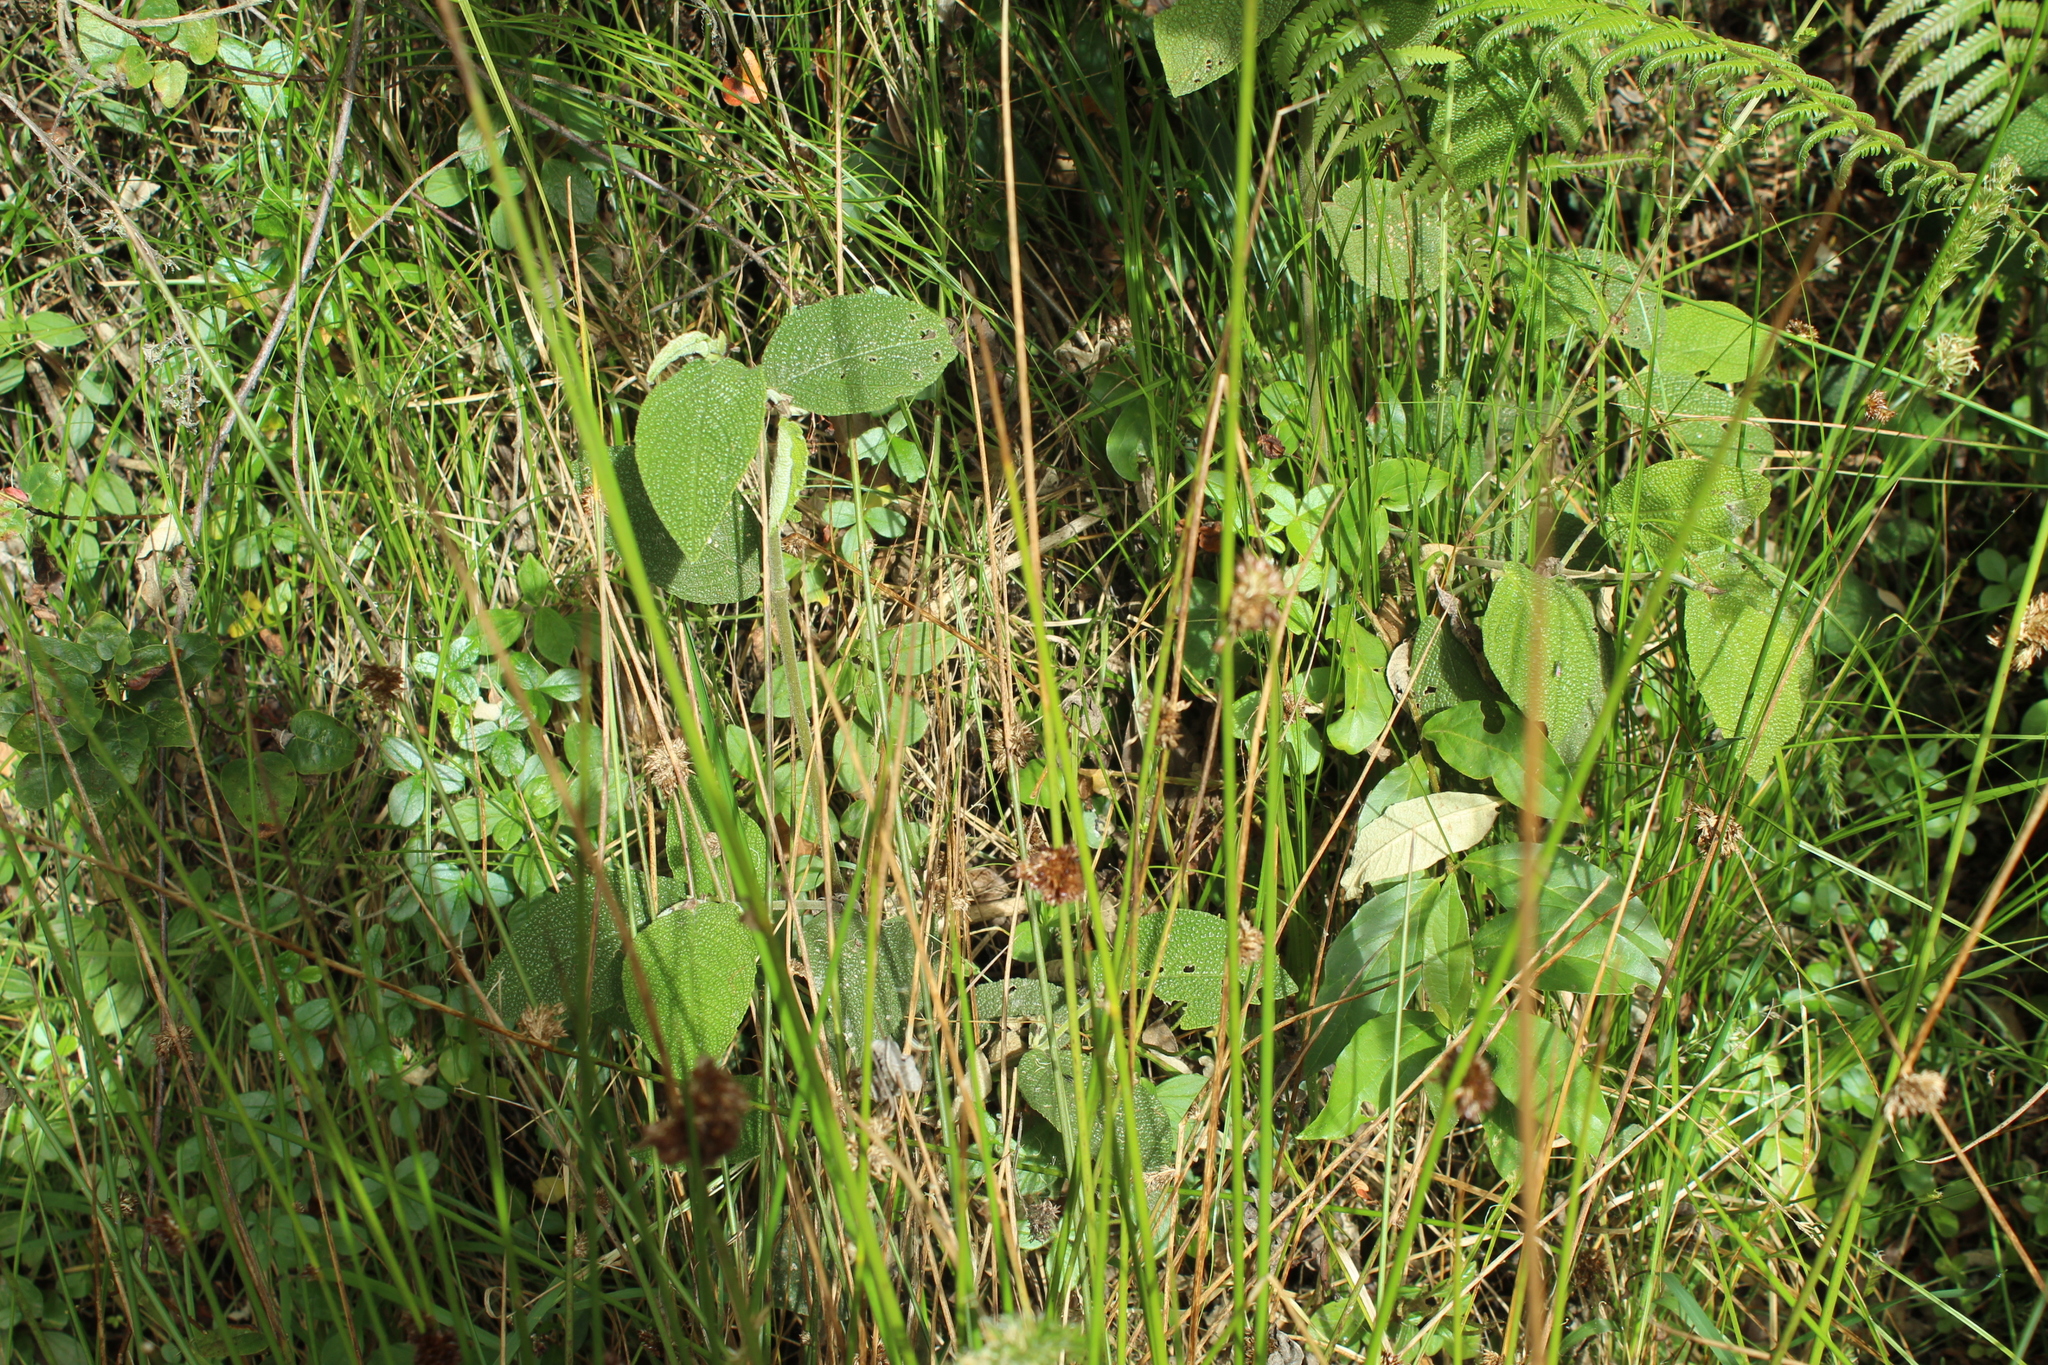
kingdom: Plantae
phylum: Tracheophyta
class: Liliopsida
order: Poales
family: Cyperaceae
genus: Schoenoplectus
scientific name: Schoenoplectus californicus
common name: California bulrush
